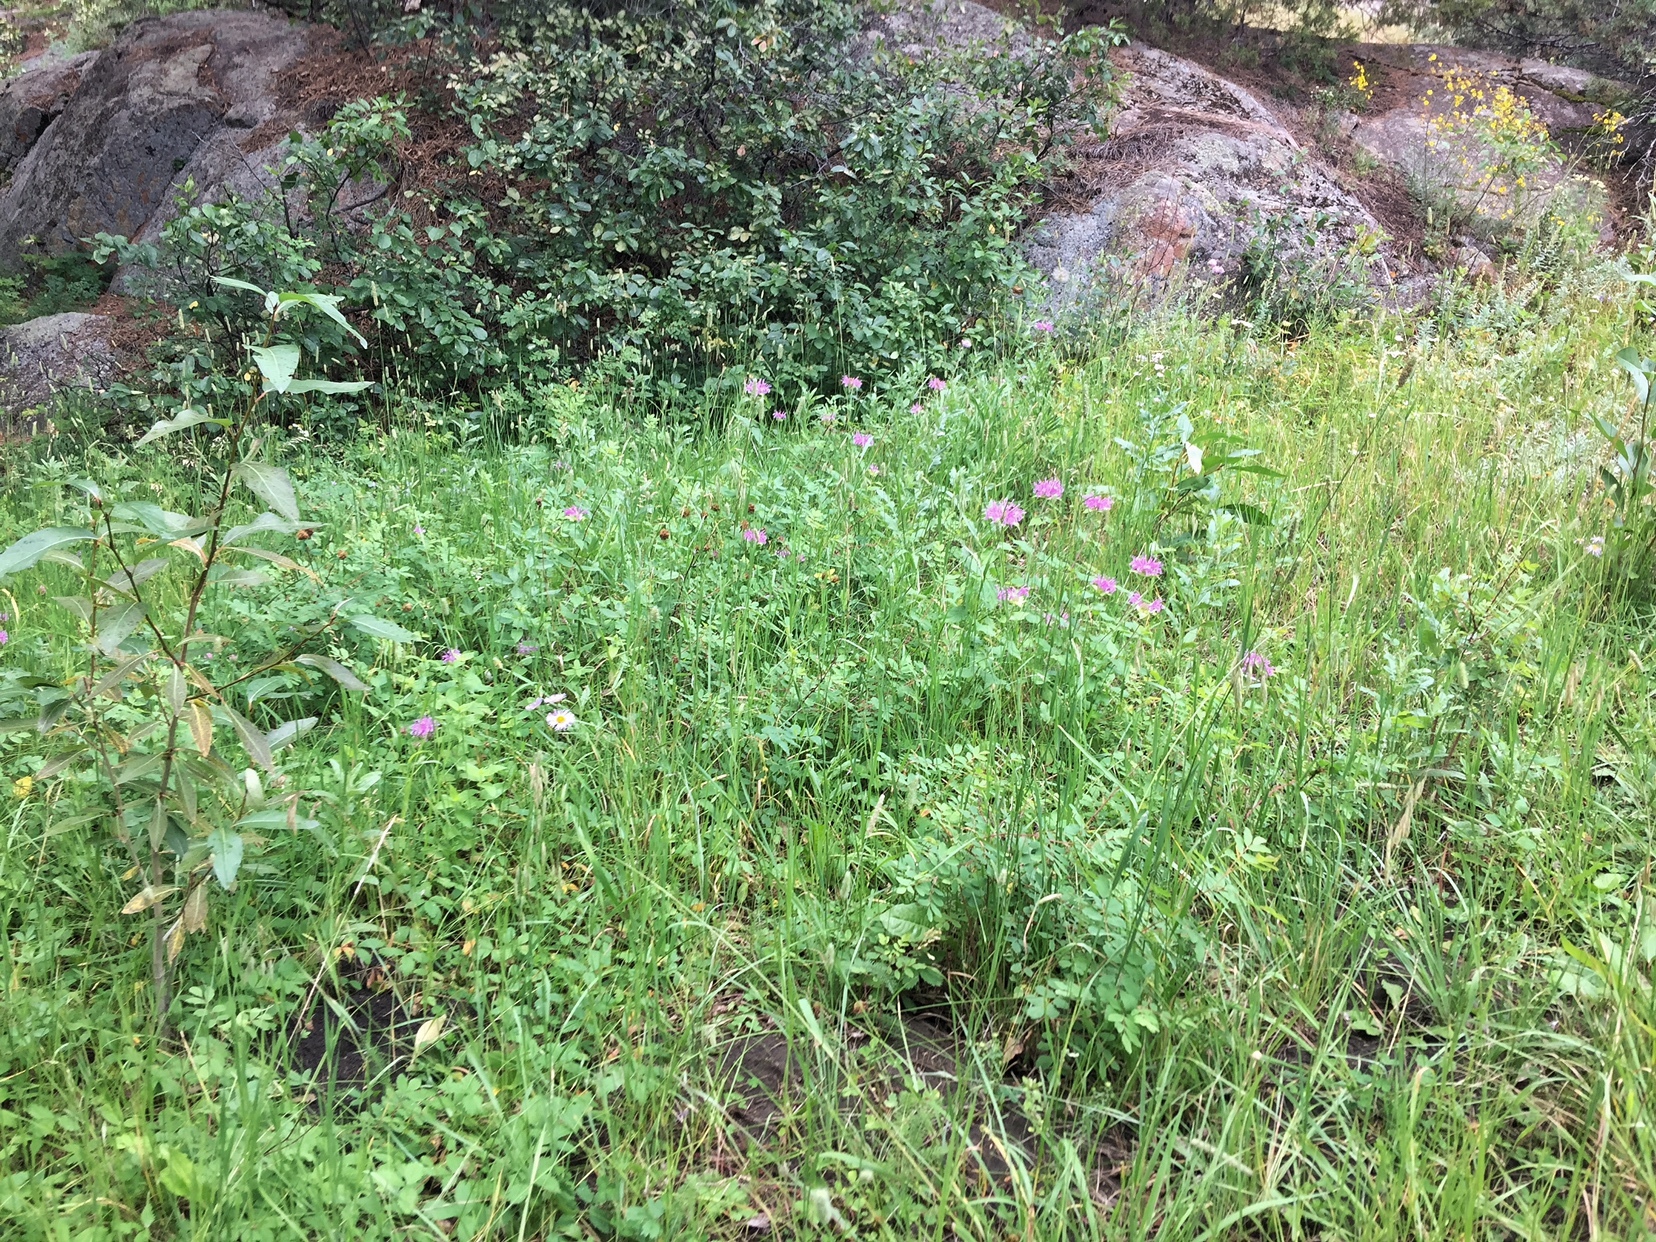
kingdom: Plantae
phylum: Tracheophyta
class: Magnoliopsida
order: Lamiales
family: Lamiaceae
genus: Monarda
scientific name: Monarda fistulosa
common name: Purple beebalm
